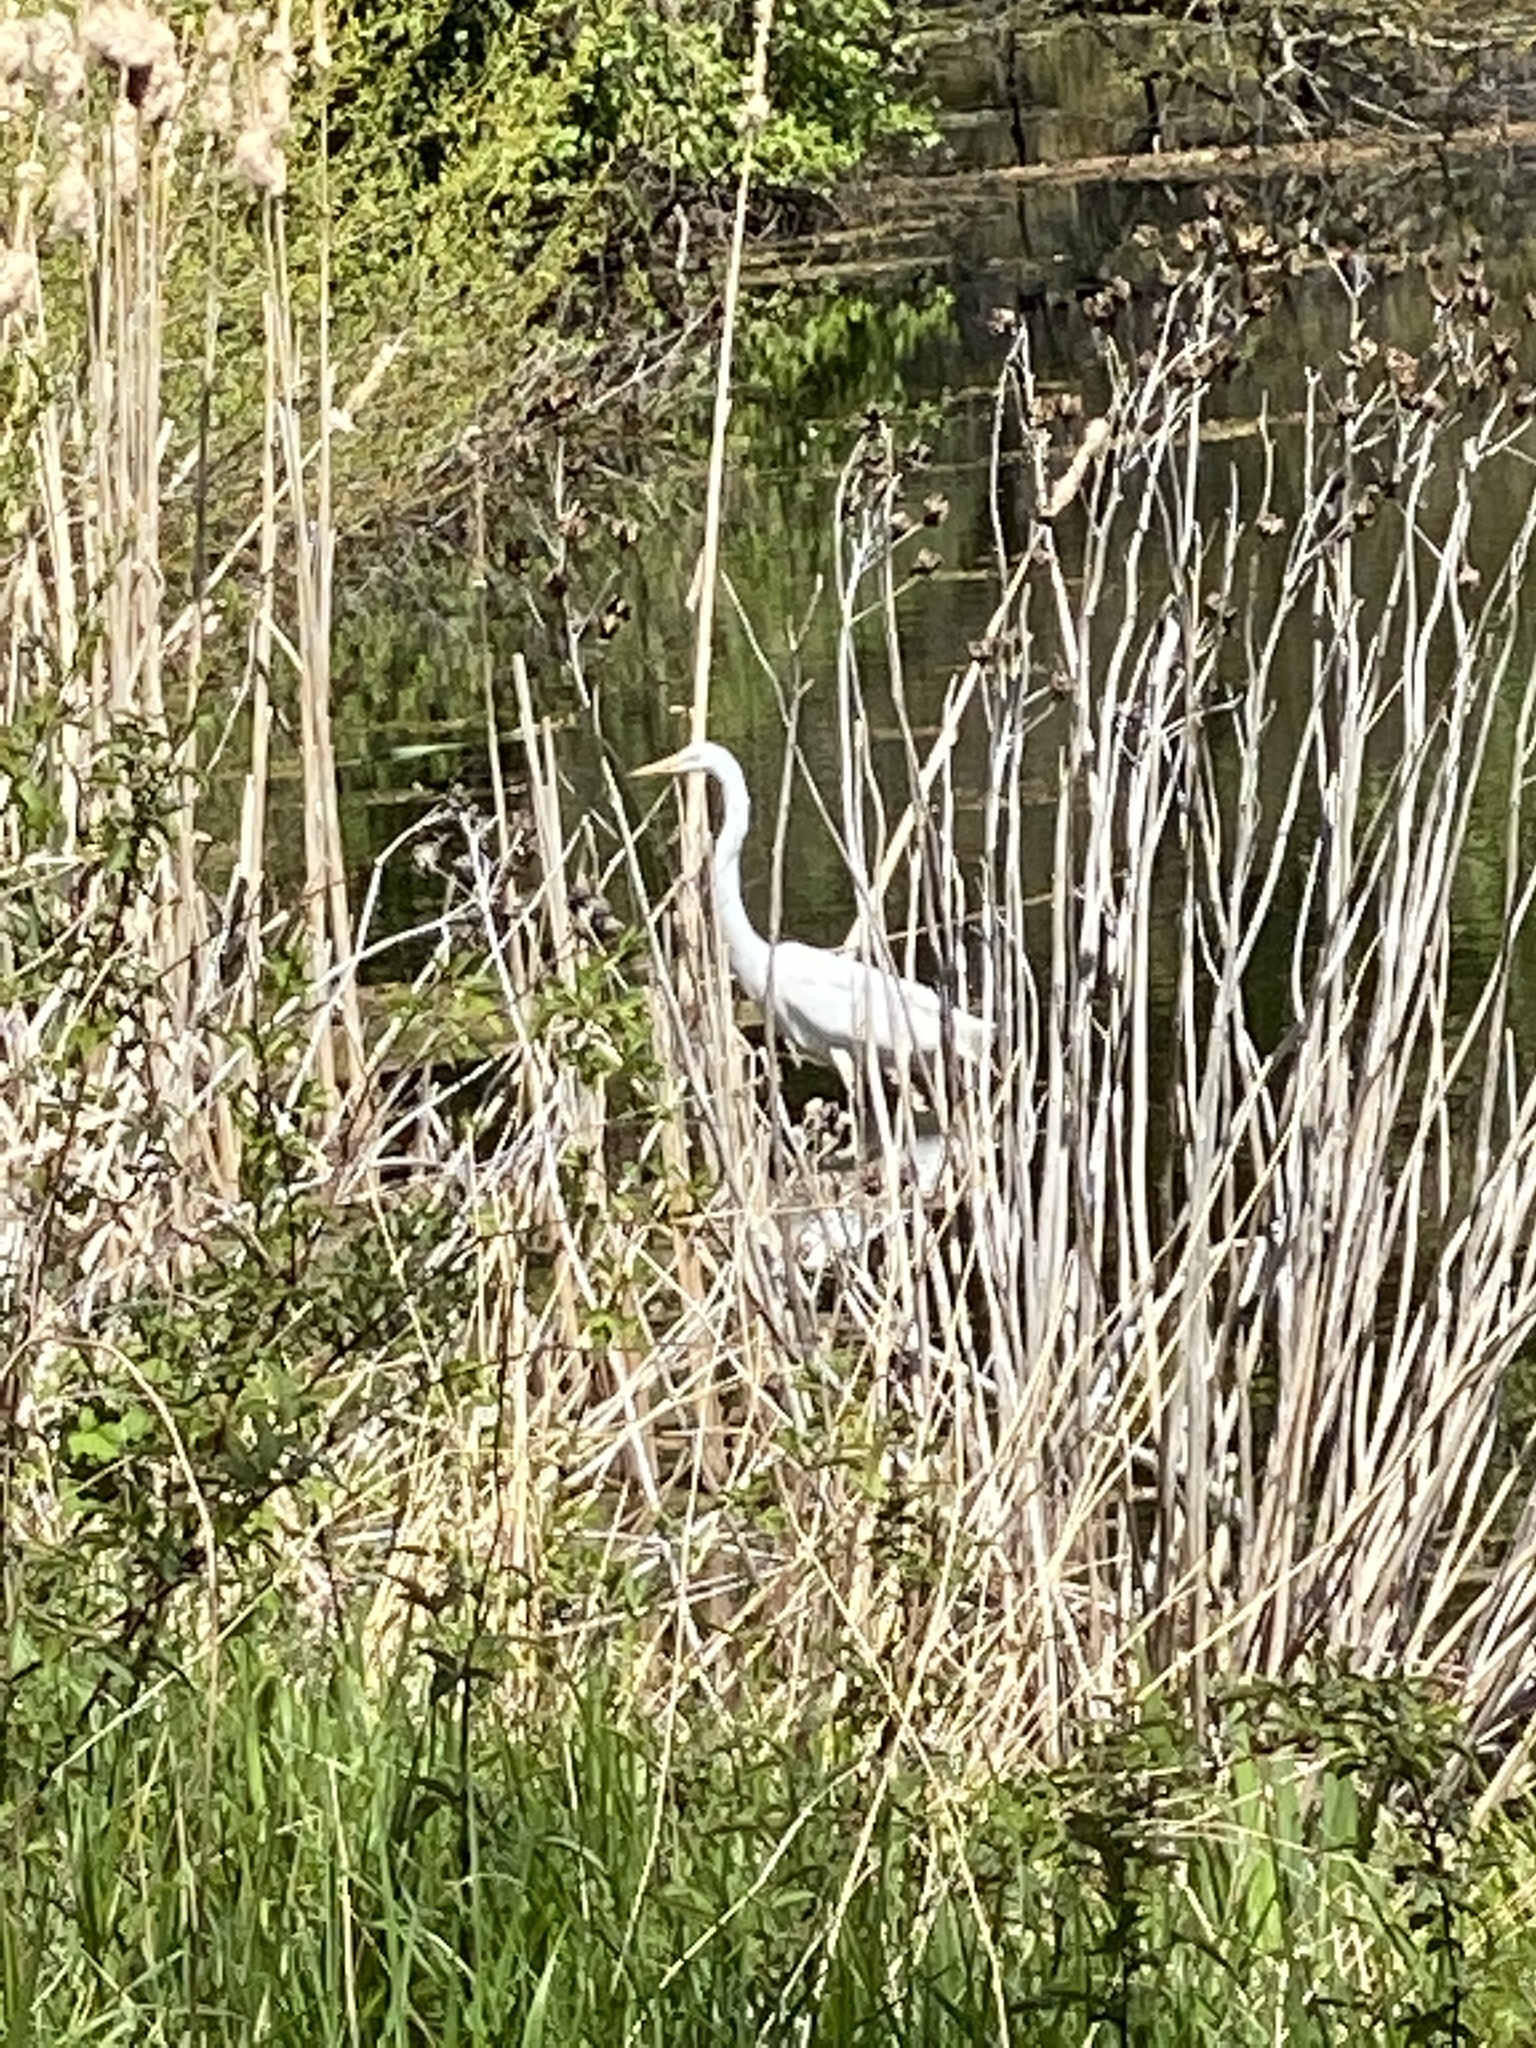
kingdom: Animalia
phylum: Chordata
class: Aves
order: Pelecaniformes
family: Ardeidae
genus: Ardea
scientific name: Ardea alba
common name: Great egret
